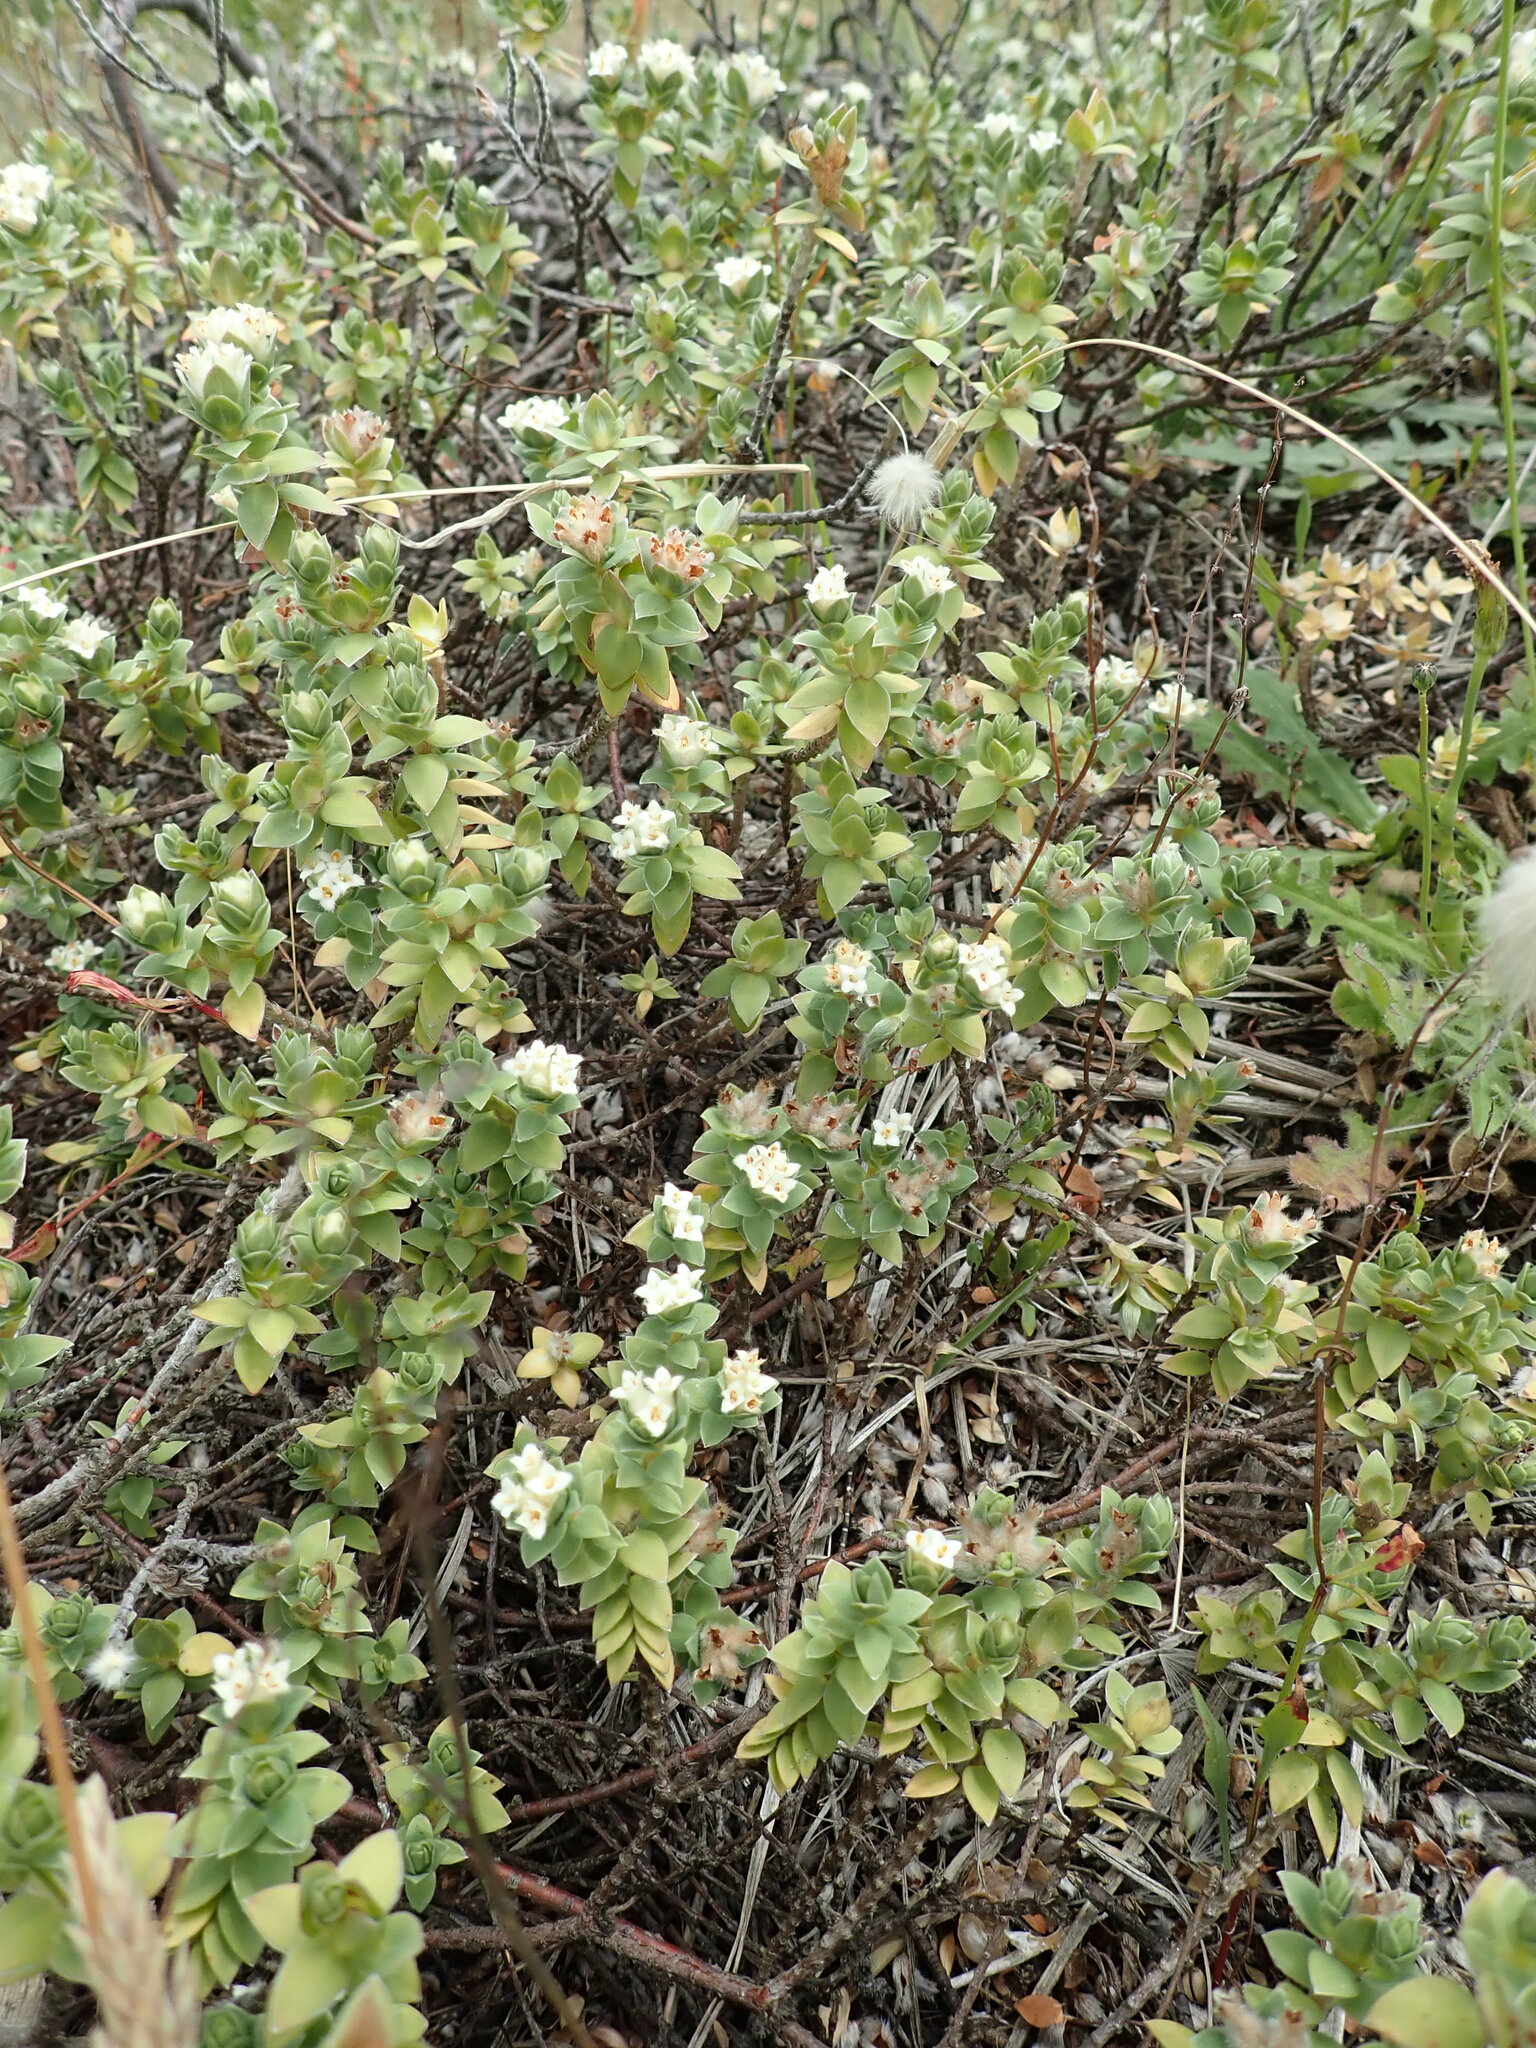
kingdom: Plantae
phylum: Tracheophyta
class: Magnoliopsida
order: Malvales
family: Thymelaeaceae
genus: Pimelea
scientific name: Pimelea villosa
